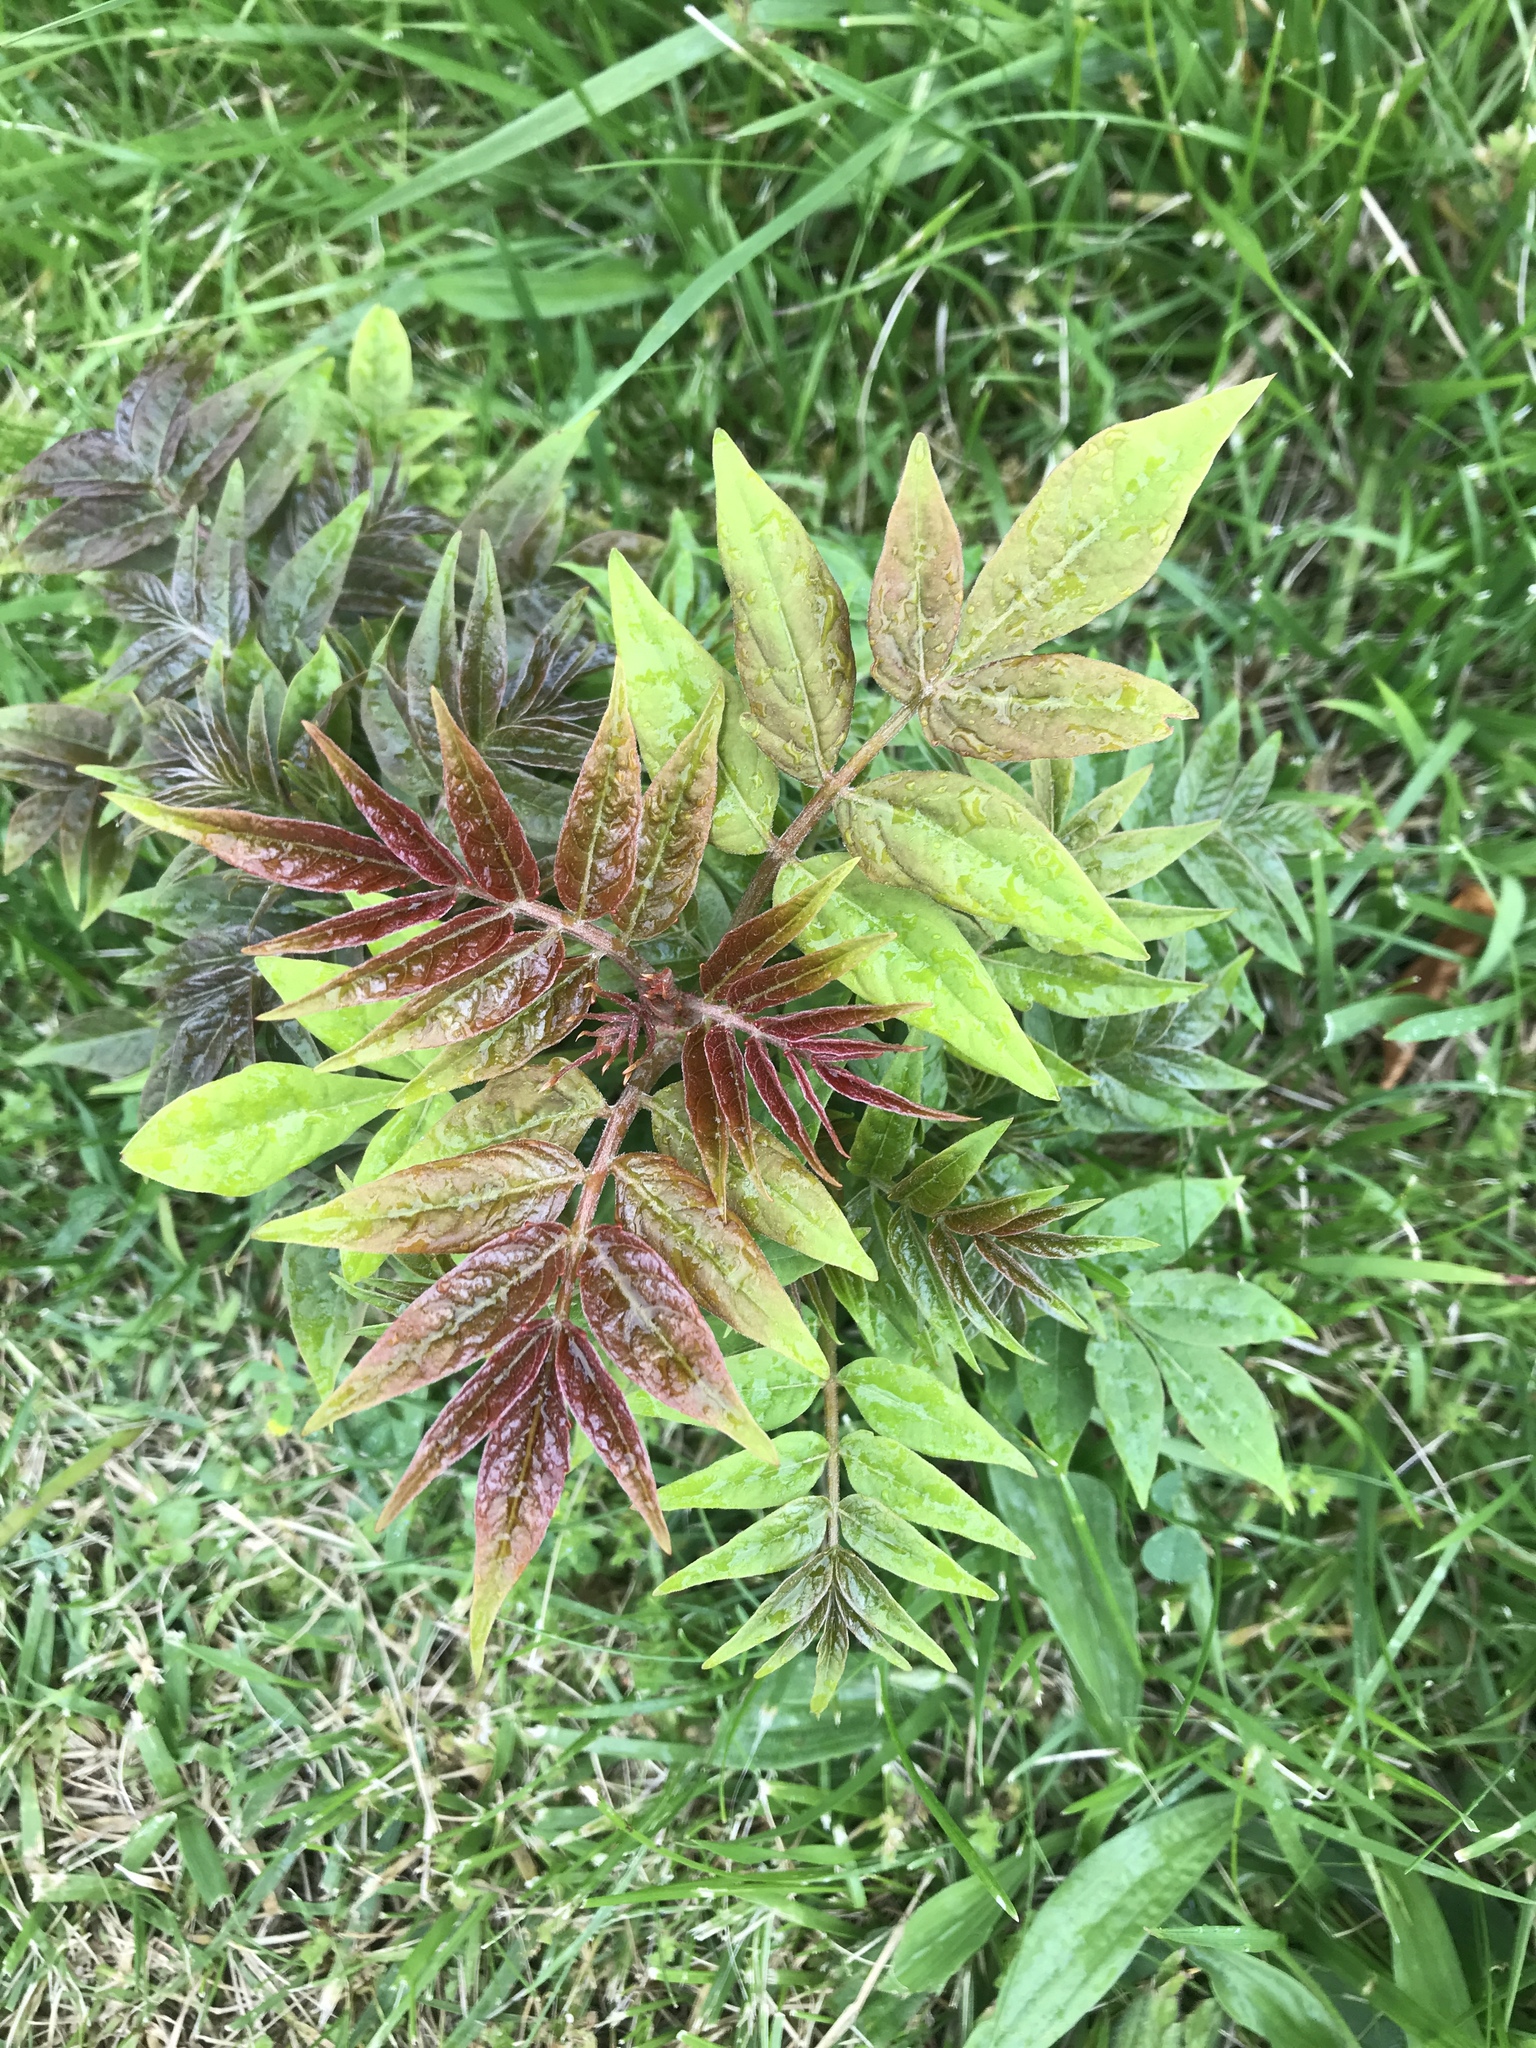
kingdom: Plantae
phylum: Tracheophyta
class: Magnoliopsida
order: Sapindales
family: Simaroubaceae
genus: Ailanthus
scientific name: Ailanthus altissima
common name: Tree-of-heaven
